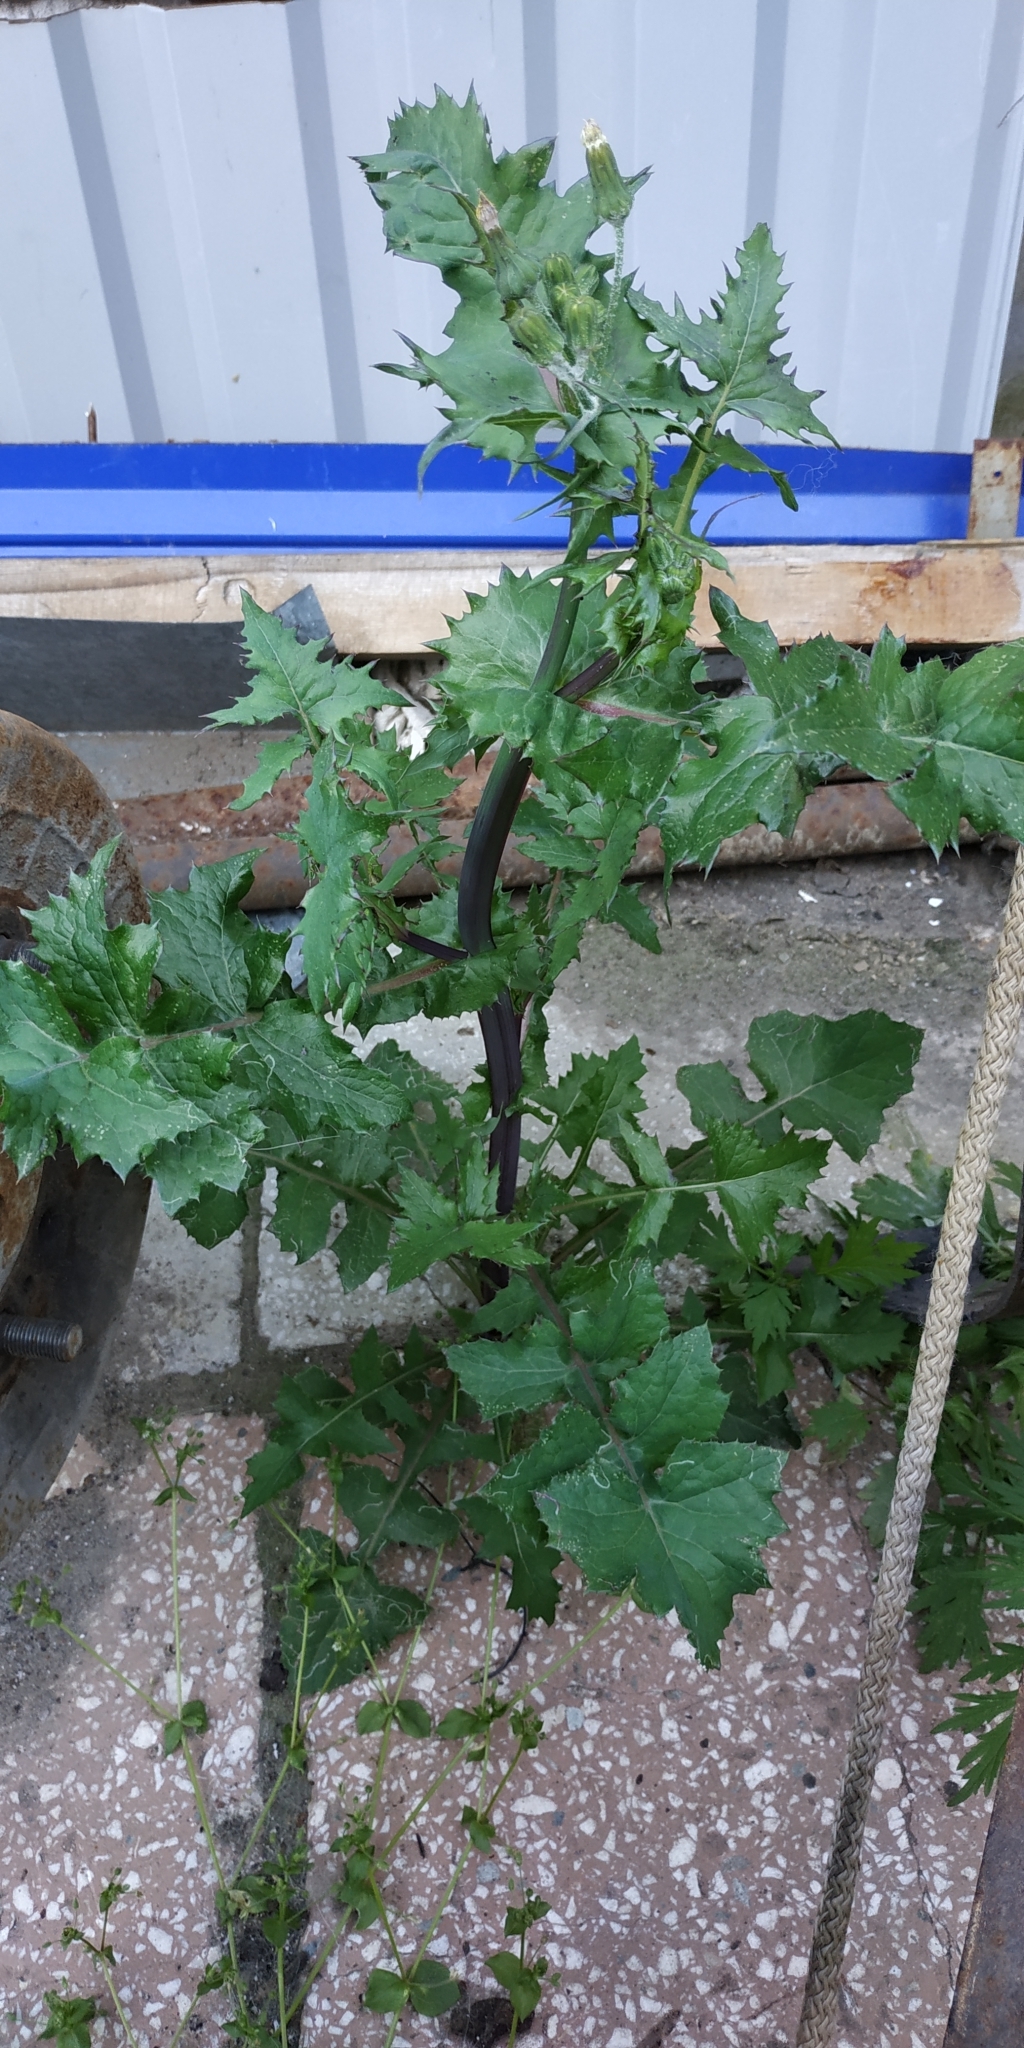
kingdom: Plantae
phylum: Tracheophyta
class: Magnoliopsida
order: Asterales
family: Asteraceae
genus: Sonchus
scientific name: Sonchus oleraceus
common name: Common sowthistle
